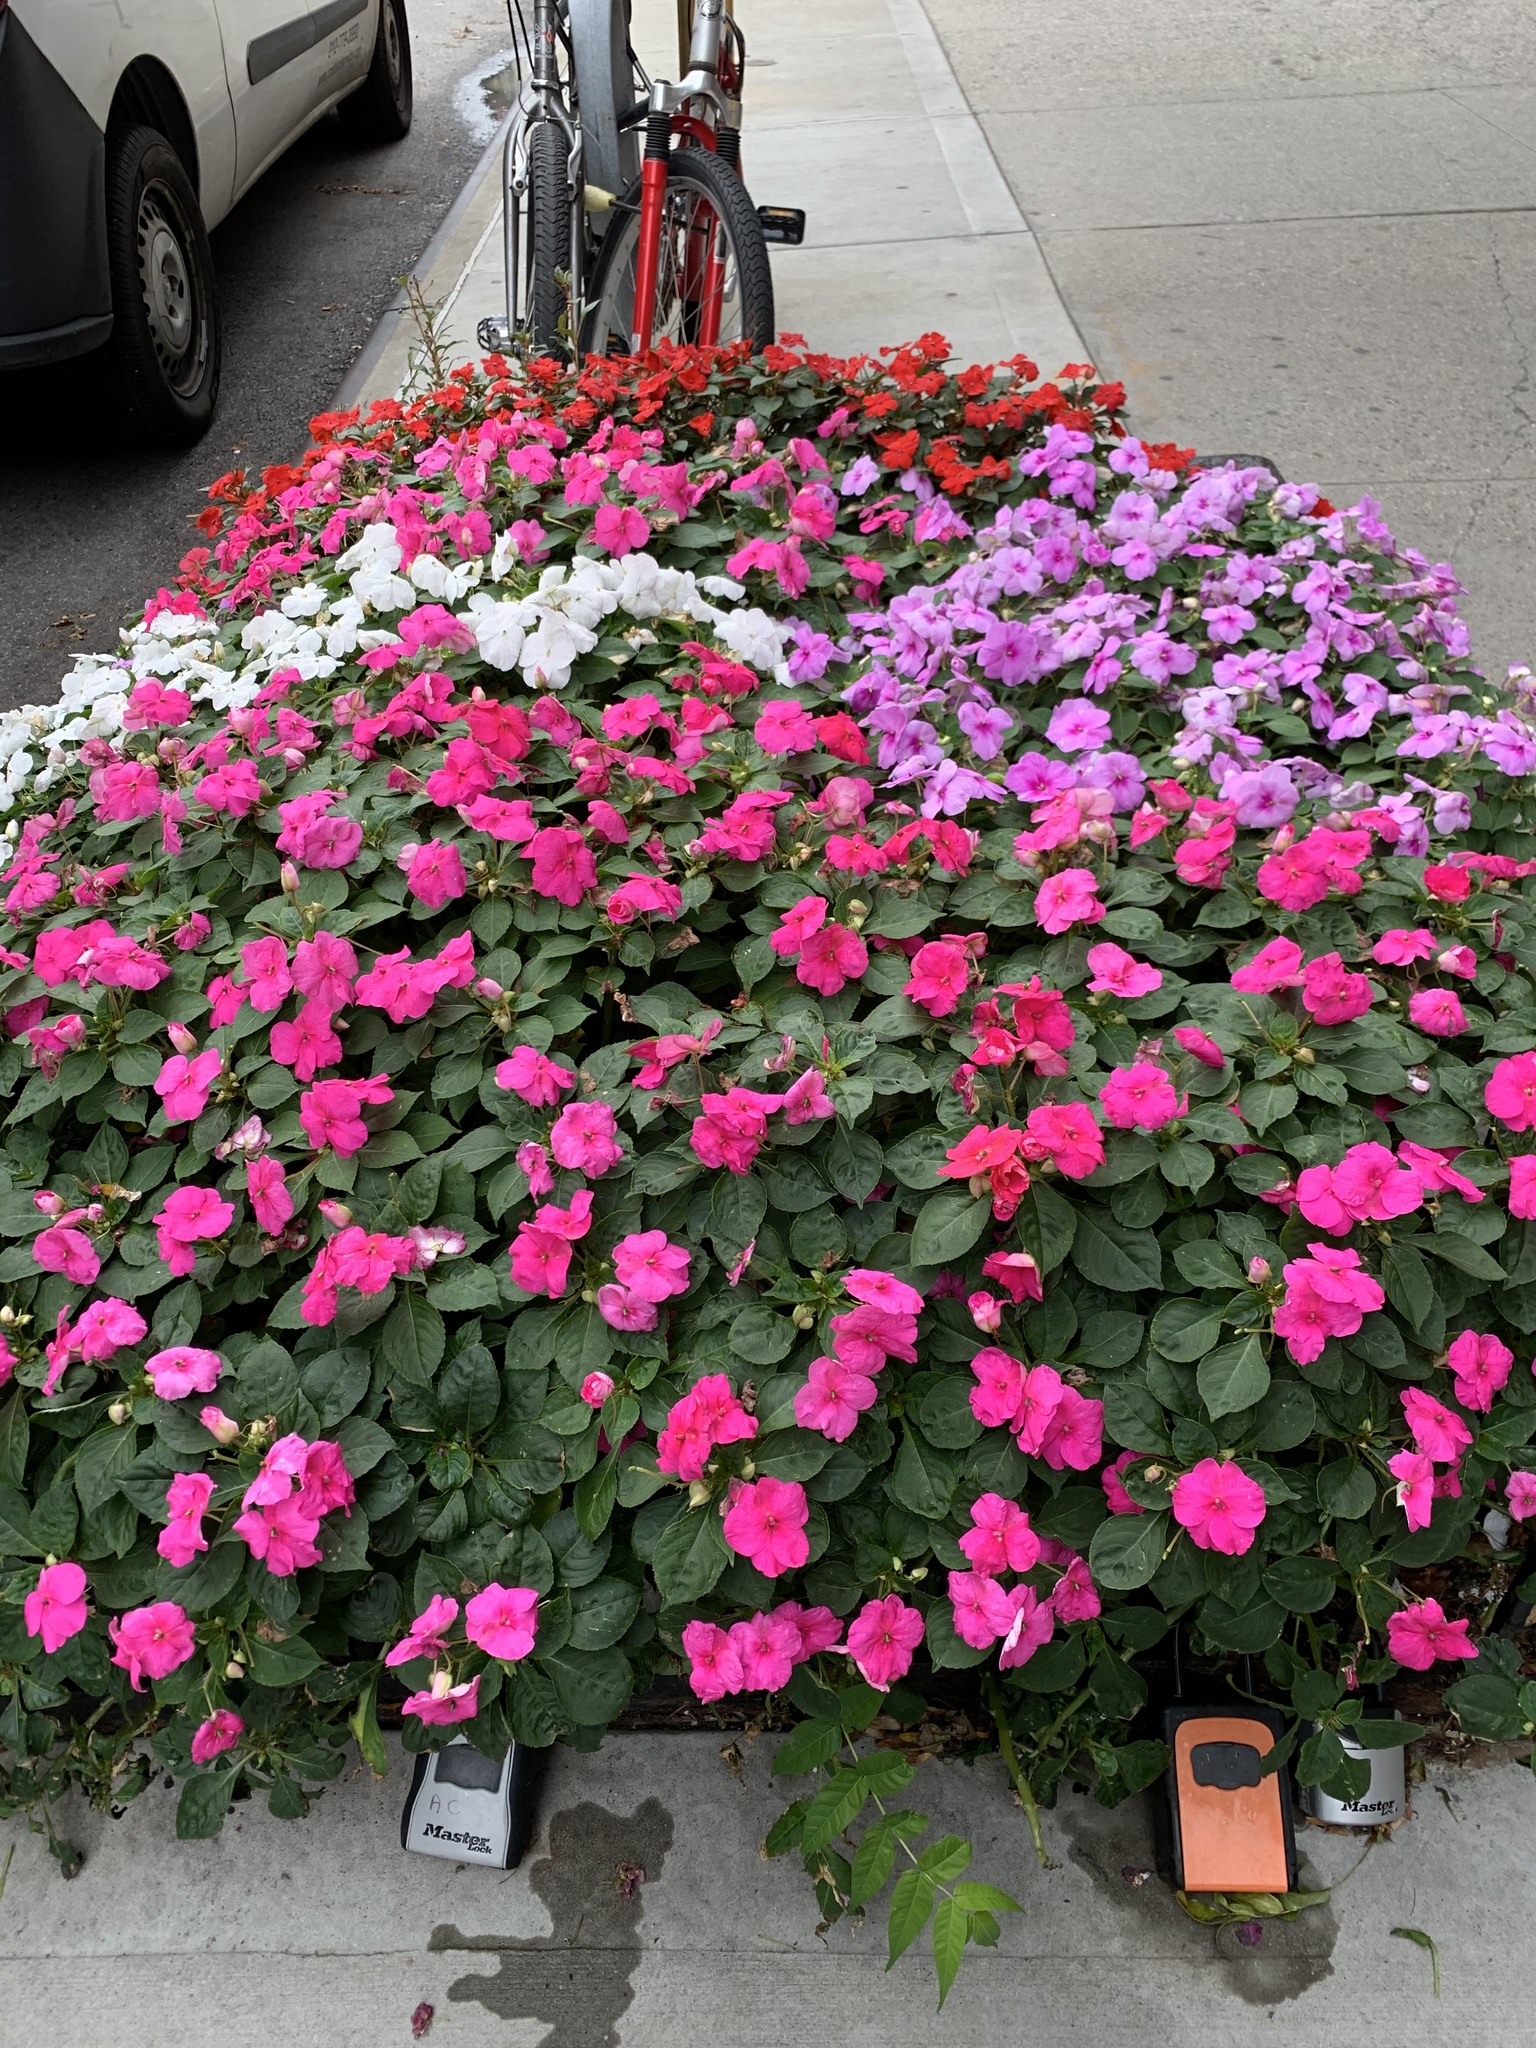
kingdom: Plantae
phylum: Tracheophyta
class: Magnoliopsida
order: Sapindales
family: Simaroubaceae
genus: Ailanthus
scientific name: Ailanthus altissima
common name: Tree-of-heaven
